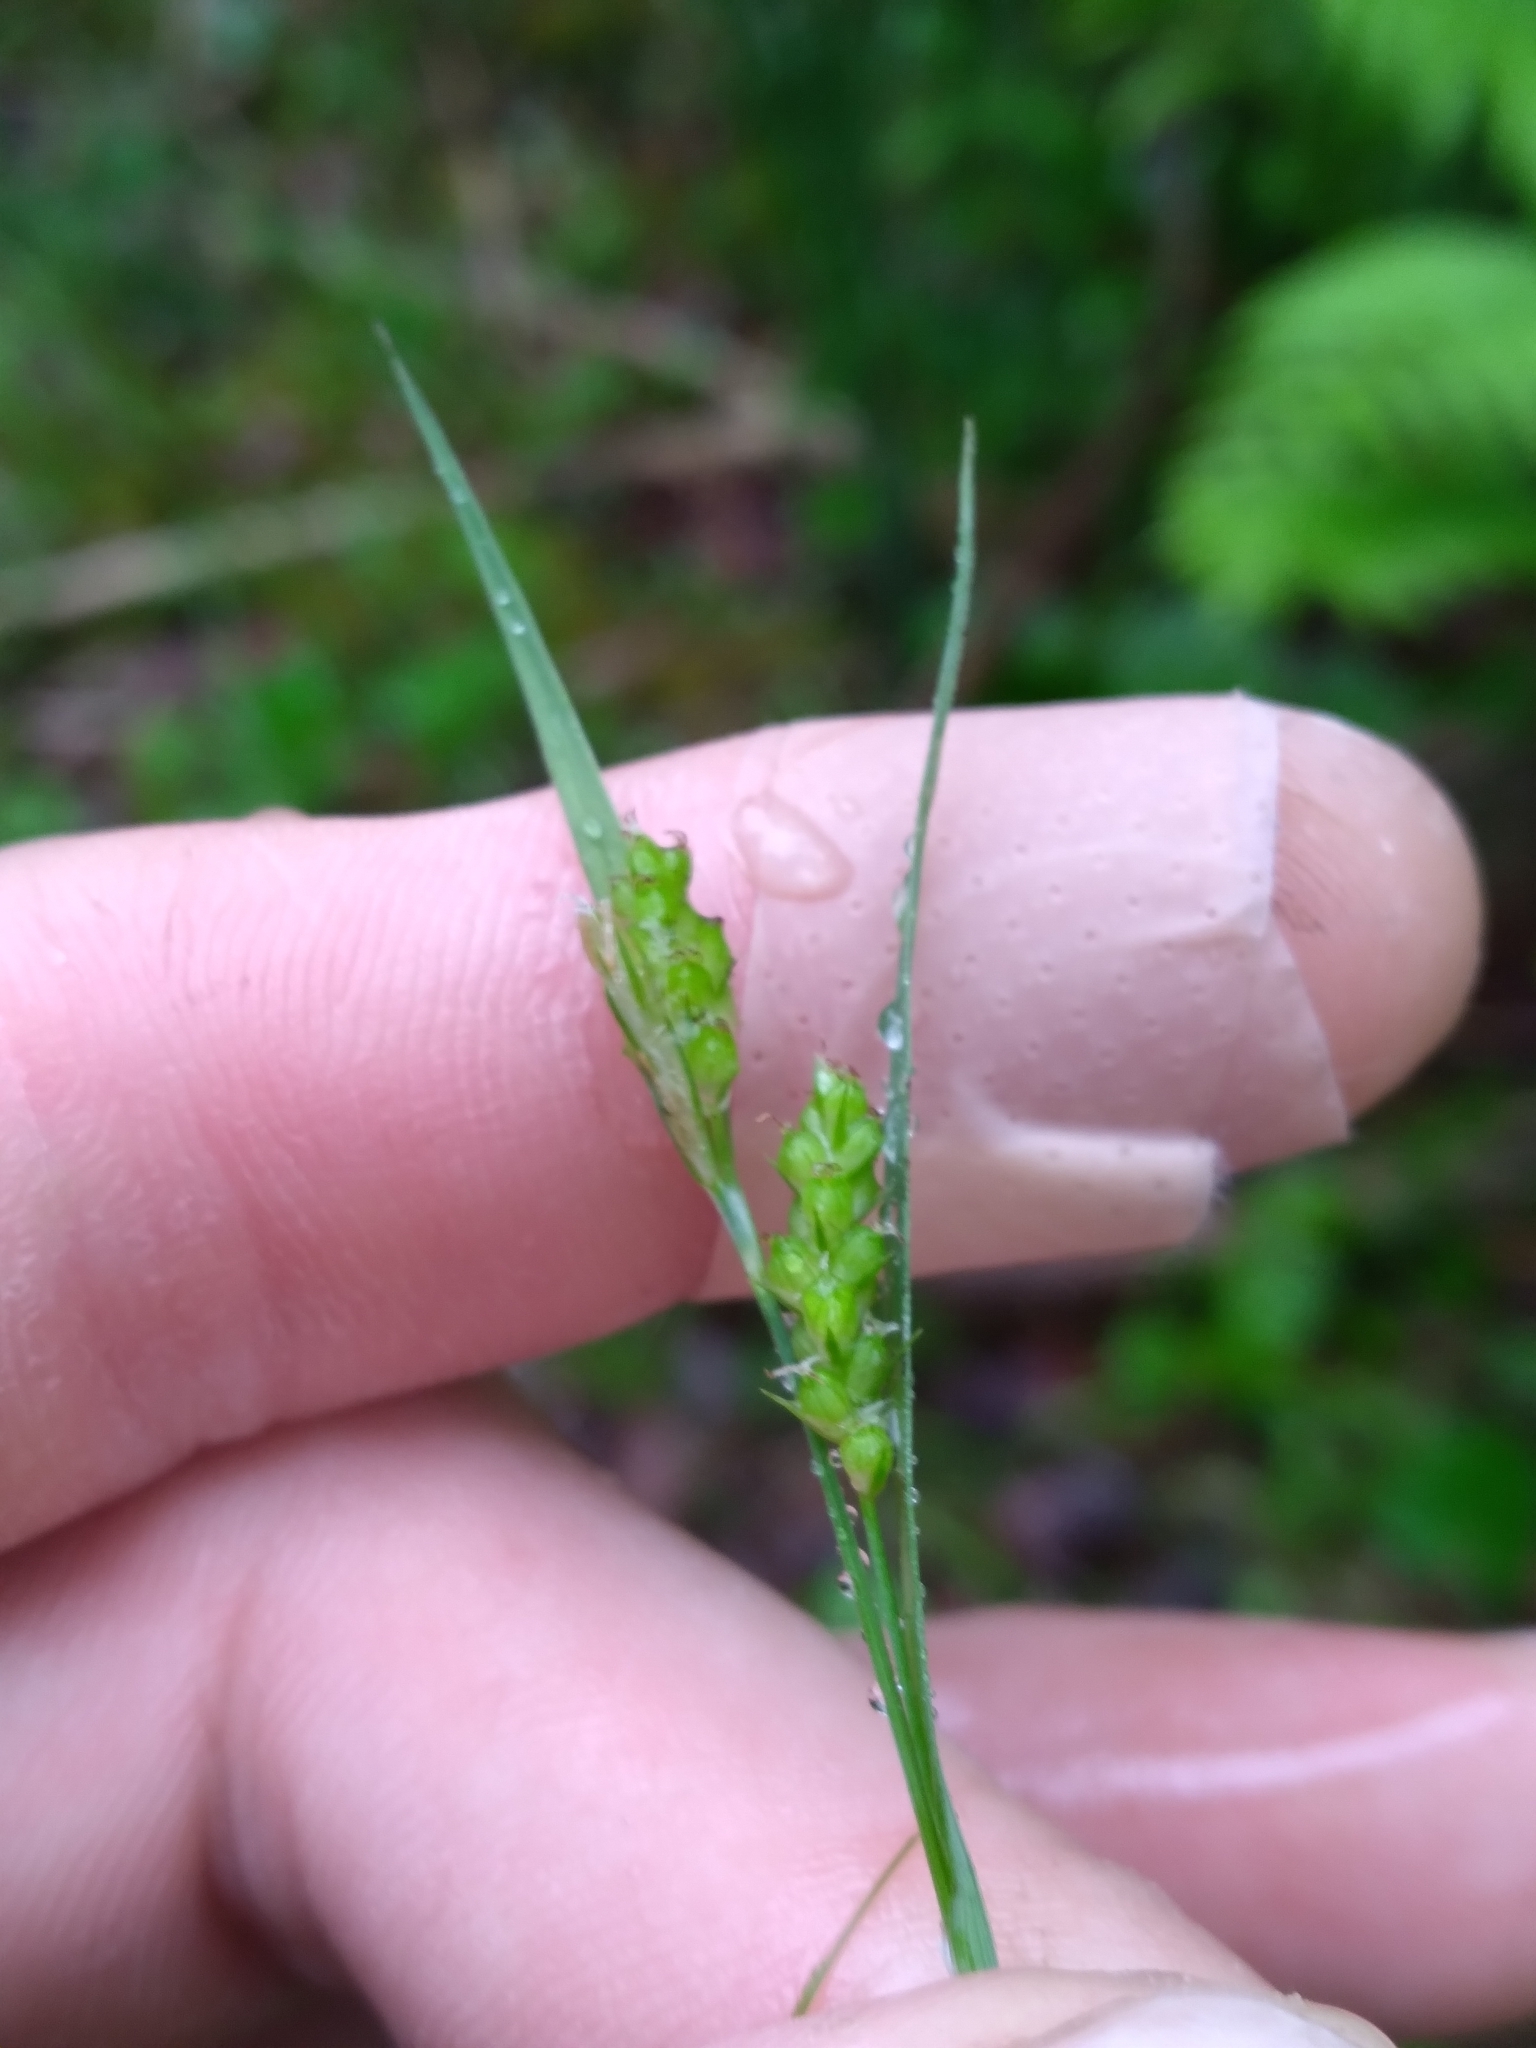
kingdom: Plantae
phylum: Tracheophyta
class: Liliopsida
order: Poales
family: Cyperaceae
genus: Carex
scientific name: Carex granularis
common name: Granular sedge
